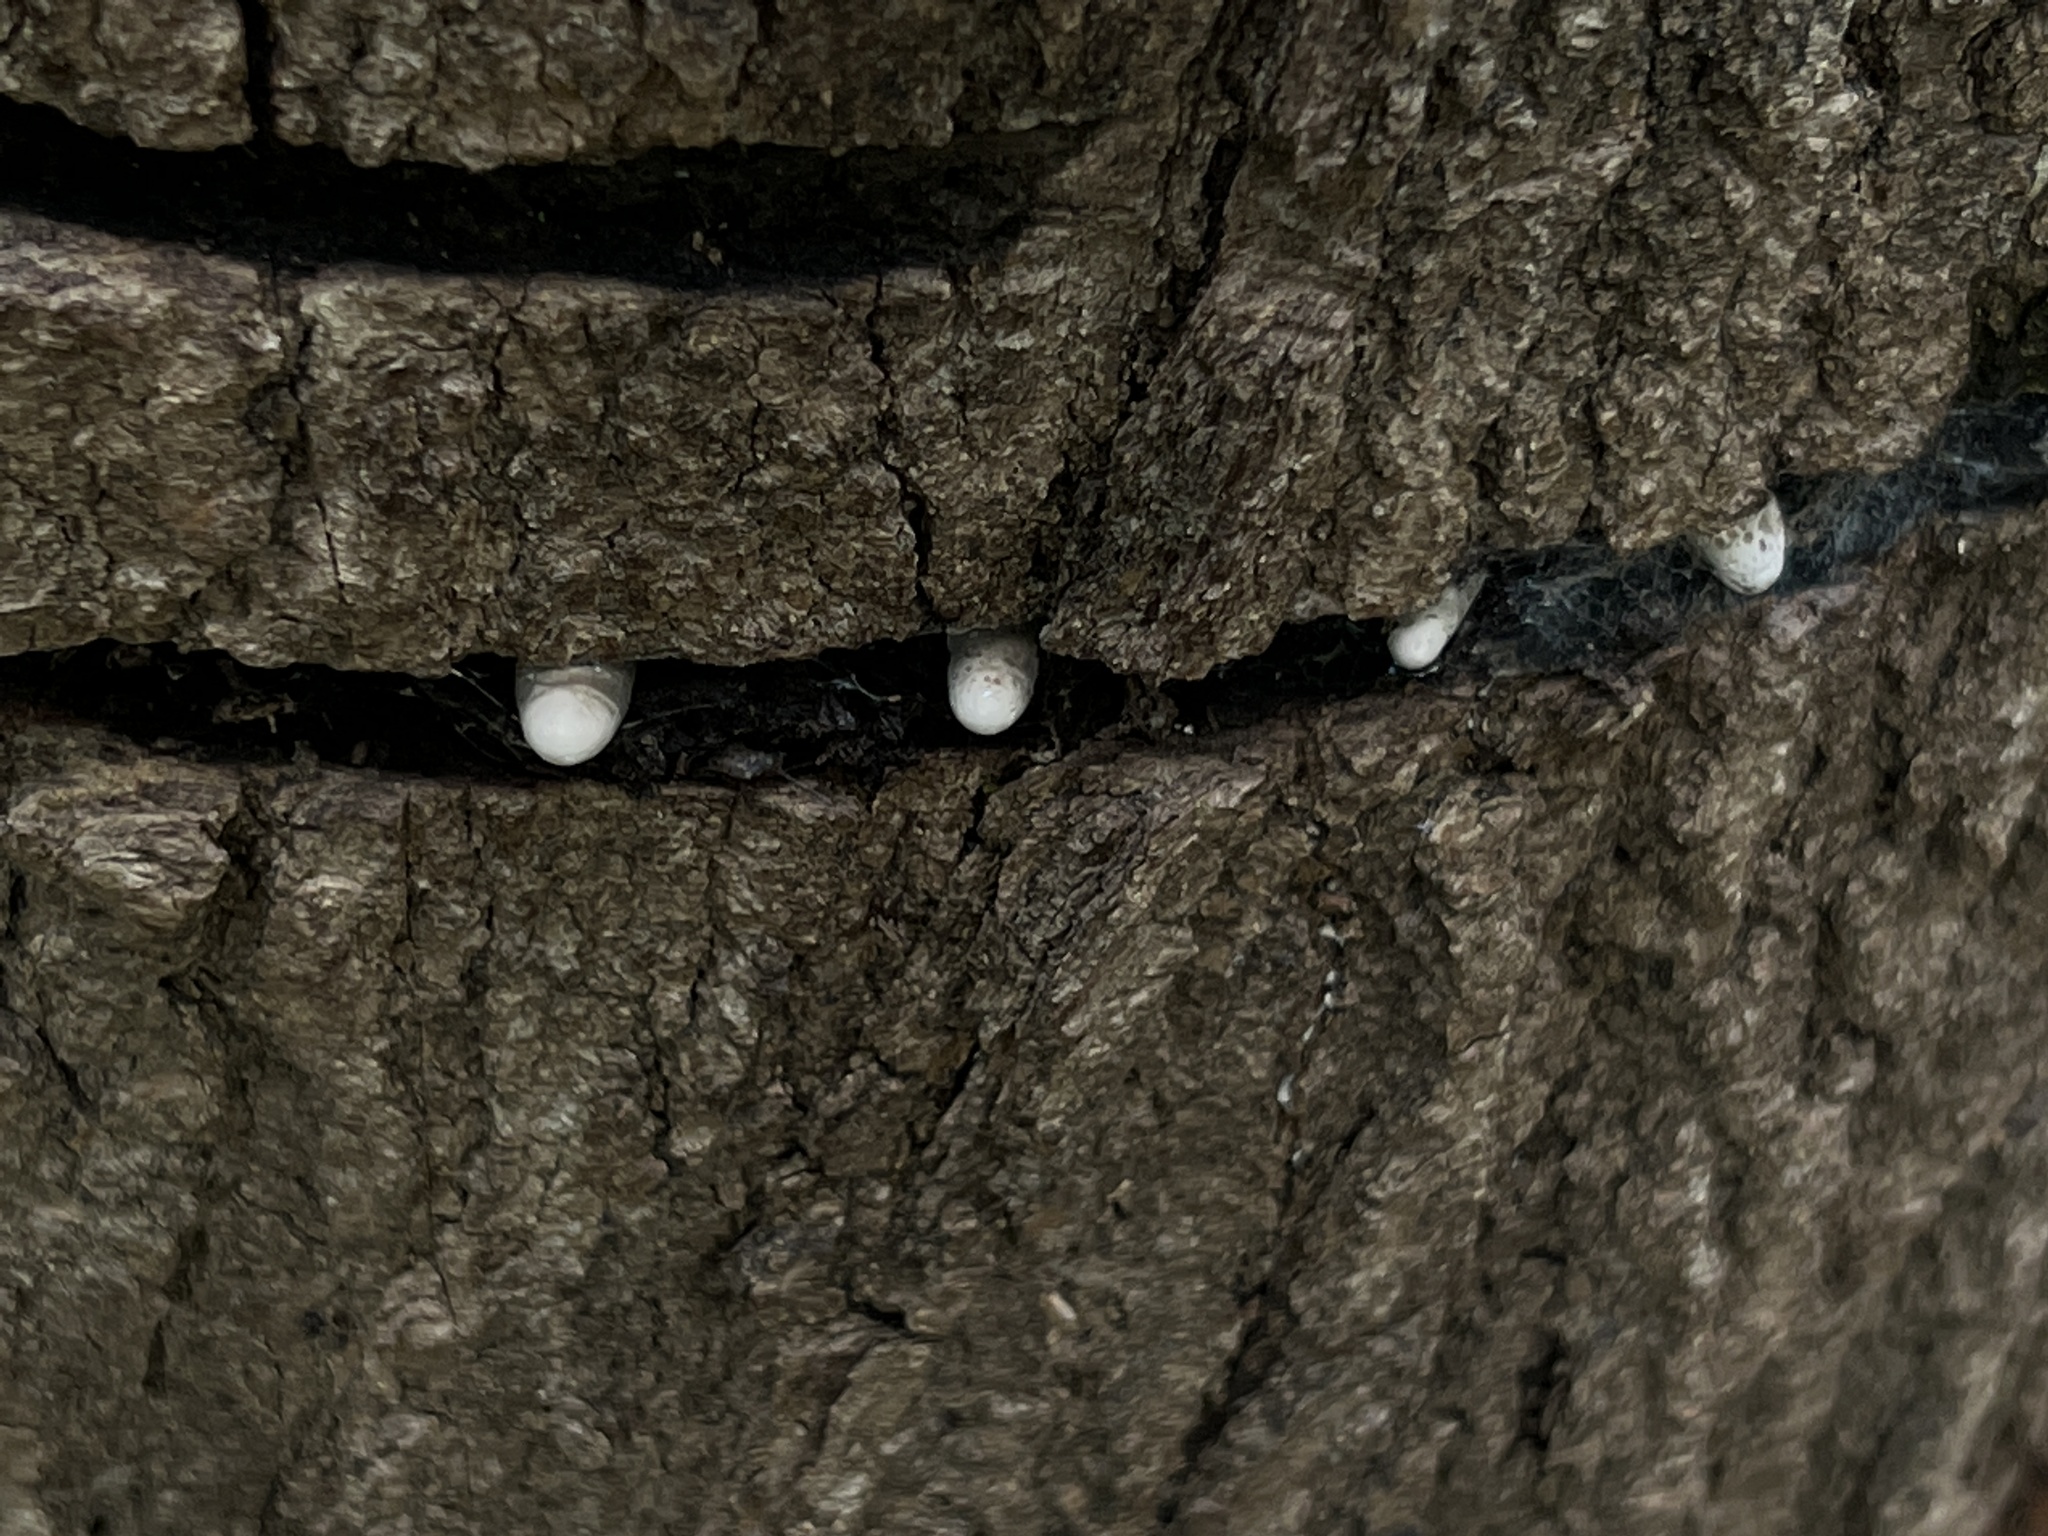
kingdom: Fungi
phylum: Ascomycota
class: Sordariomycetes
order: Xylariales
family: Xylariaceae
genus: Xylaria
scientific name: Xylaria polymorpha
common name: Dead man's fingers
